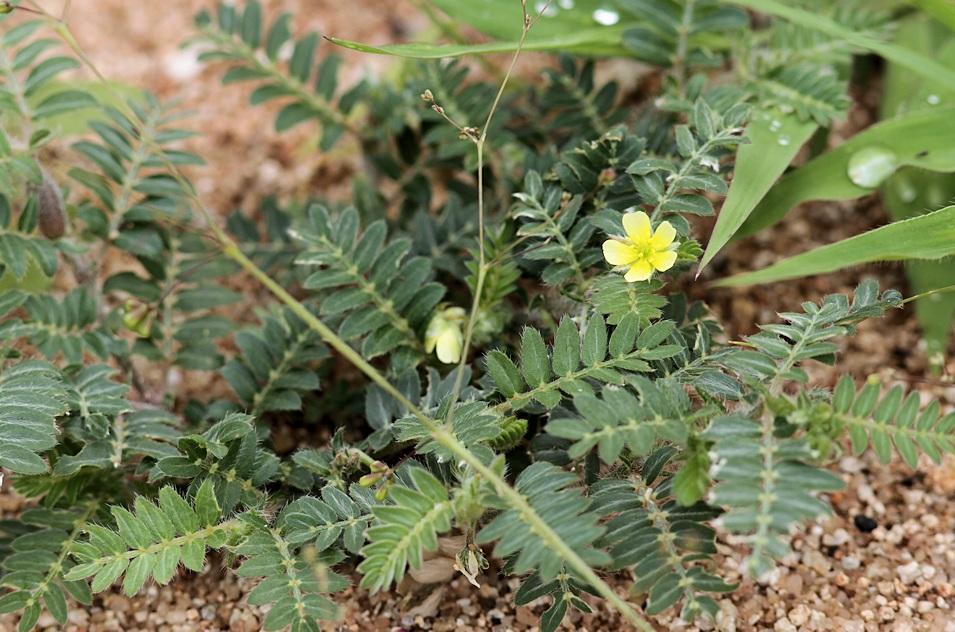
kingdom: Plantae
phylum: Tracheophyta
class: Magnoliopsida
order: Zygophyllales
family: Zygophyllaceae
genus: Tribulus
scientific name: Tribulus terrestris
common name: Puncturevine
